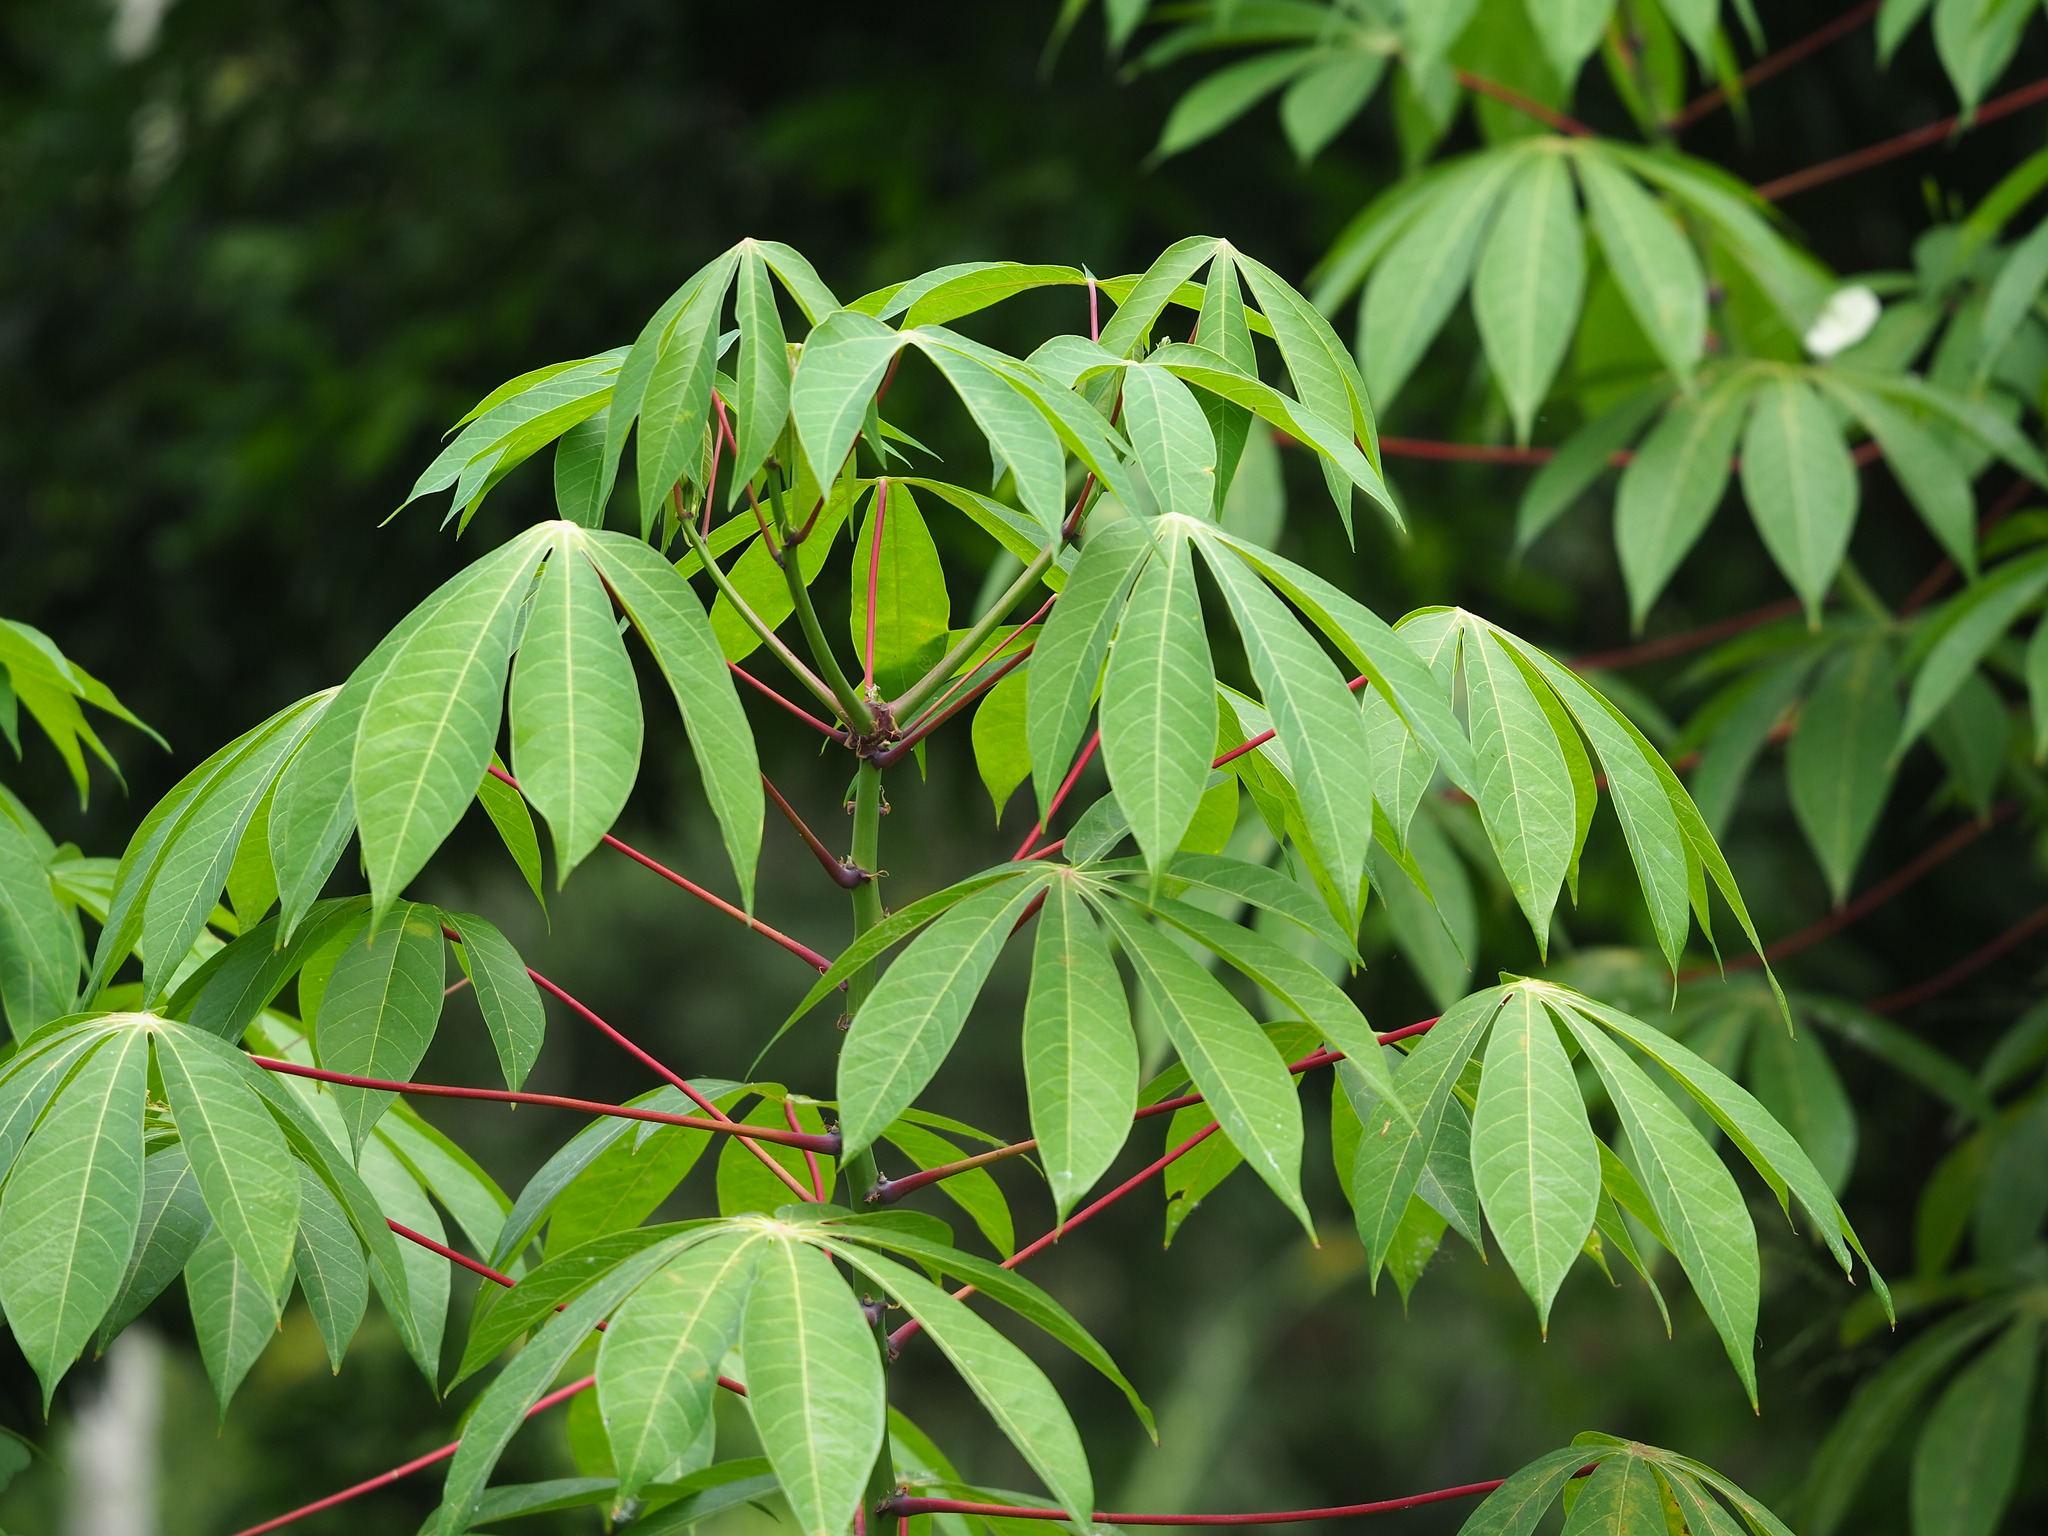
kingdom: Plantae
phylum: Tracheophyta
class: Magnoliopsida
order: Malpighiales
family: Euphorbiaceae
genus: Manihot
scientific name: Manihot esculenta
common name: Cassava
